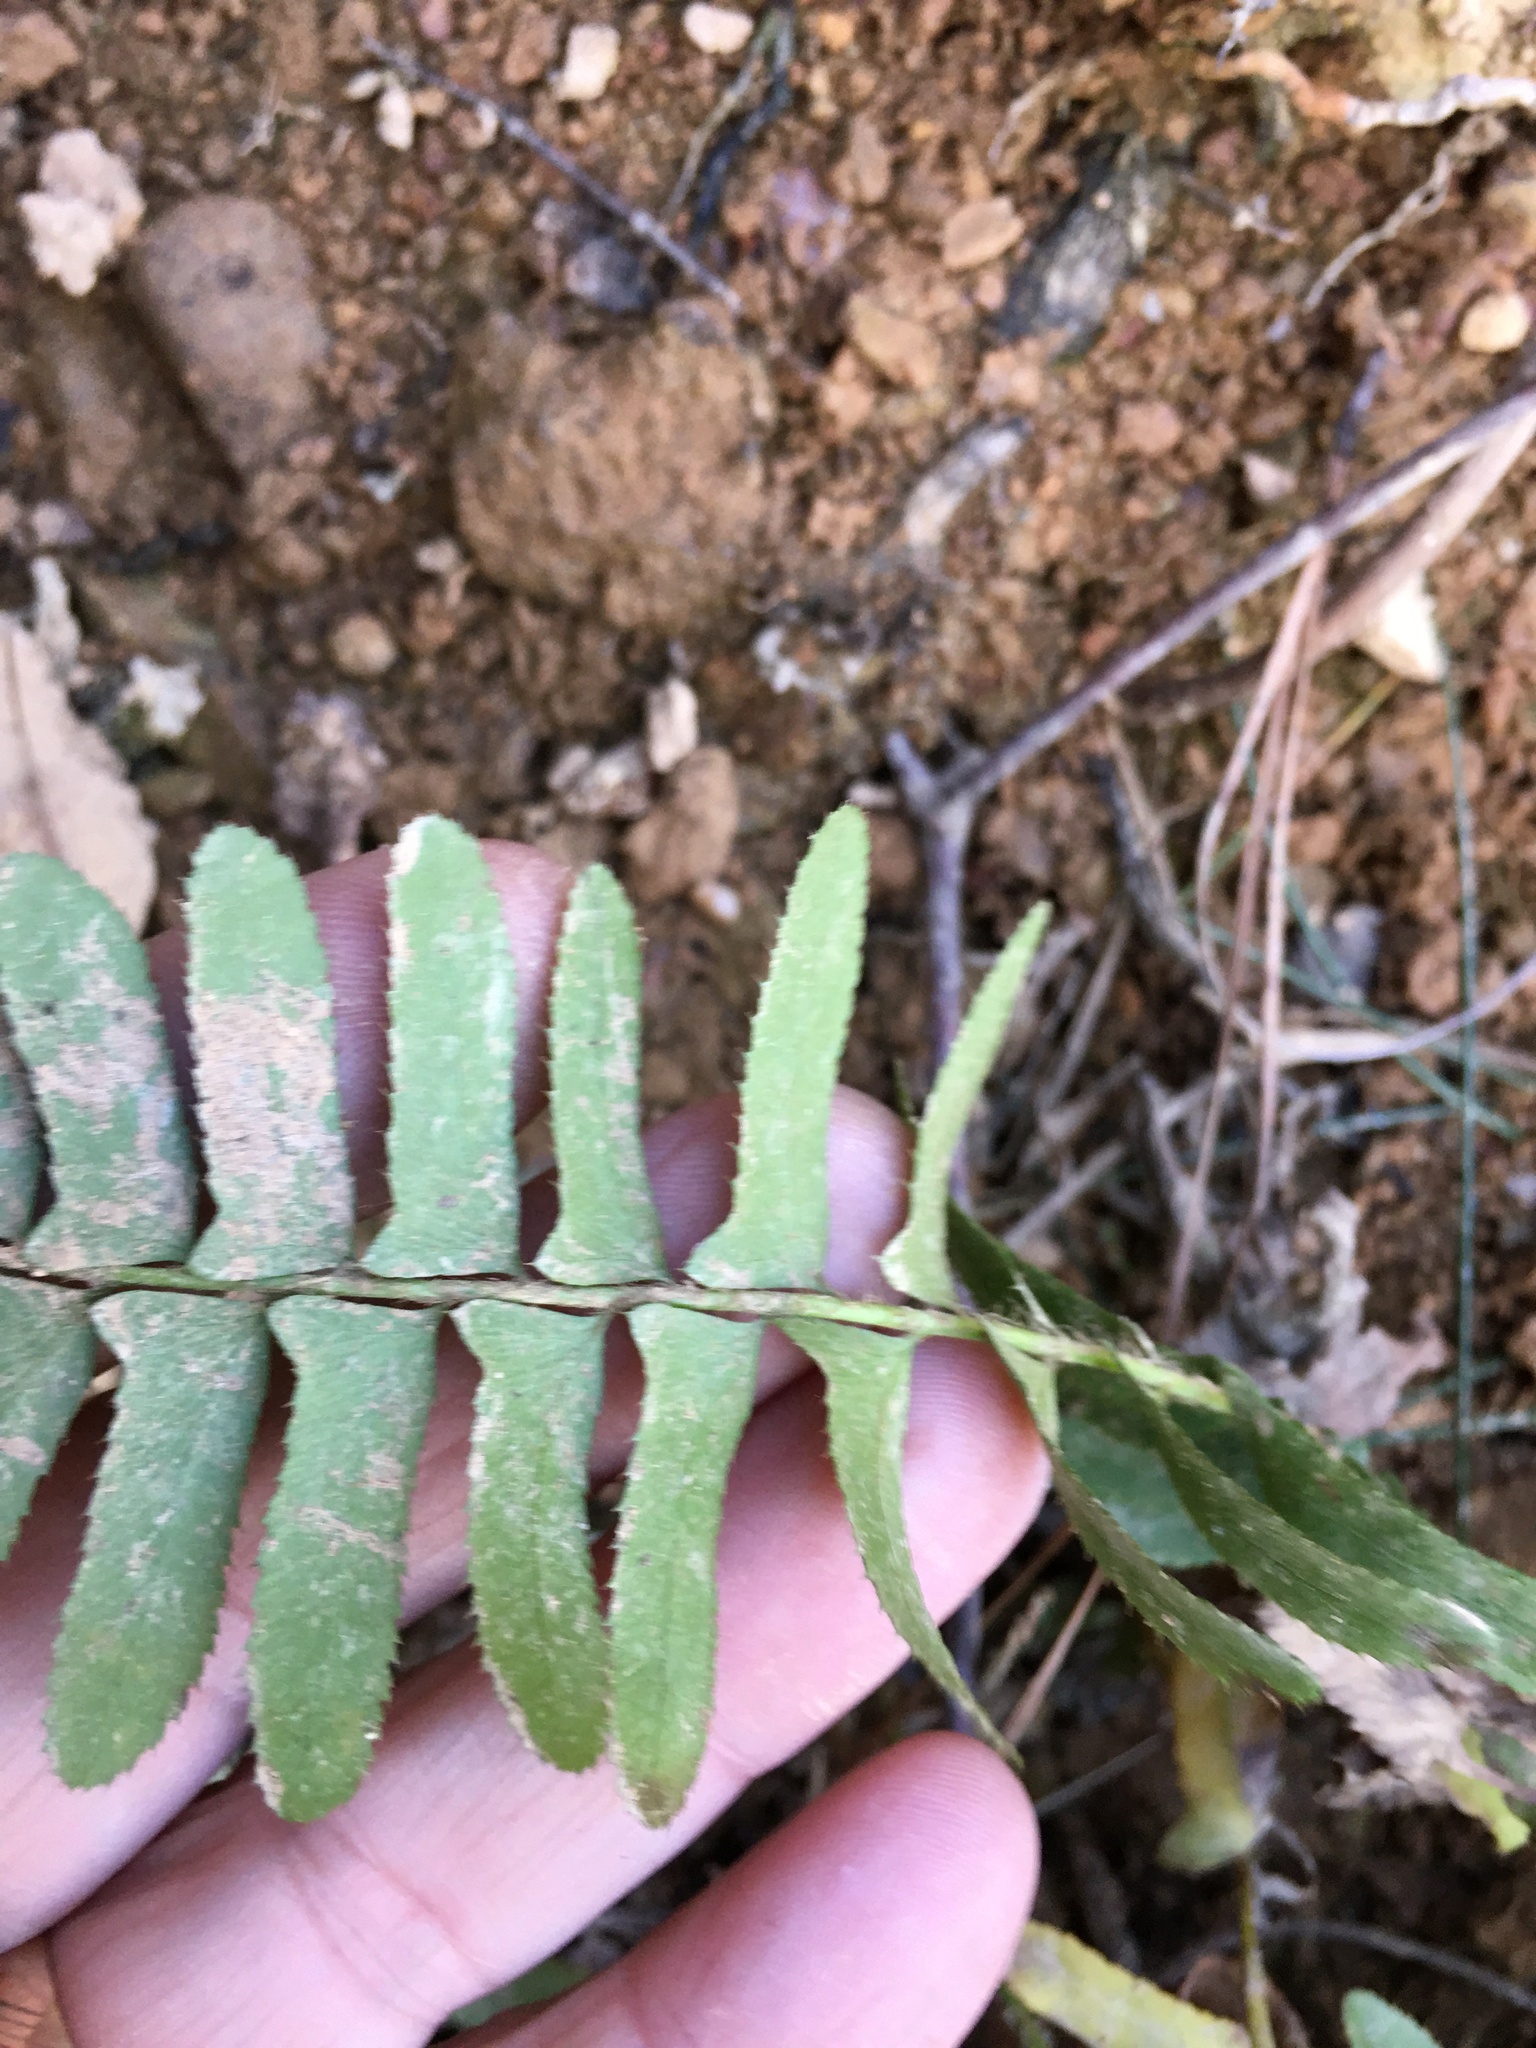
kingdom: Plantae
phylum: Tracheophyta
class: Polypodiopsida
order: Polypodiales
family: Dryopteridaceae
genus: Polystichum
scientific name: Polystichum acrostichoides
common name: Christmas fern
